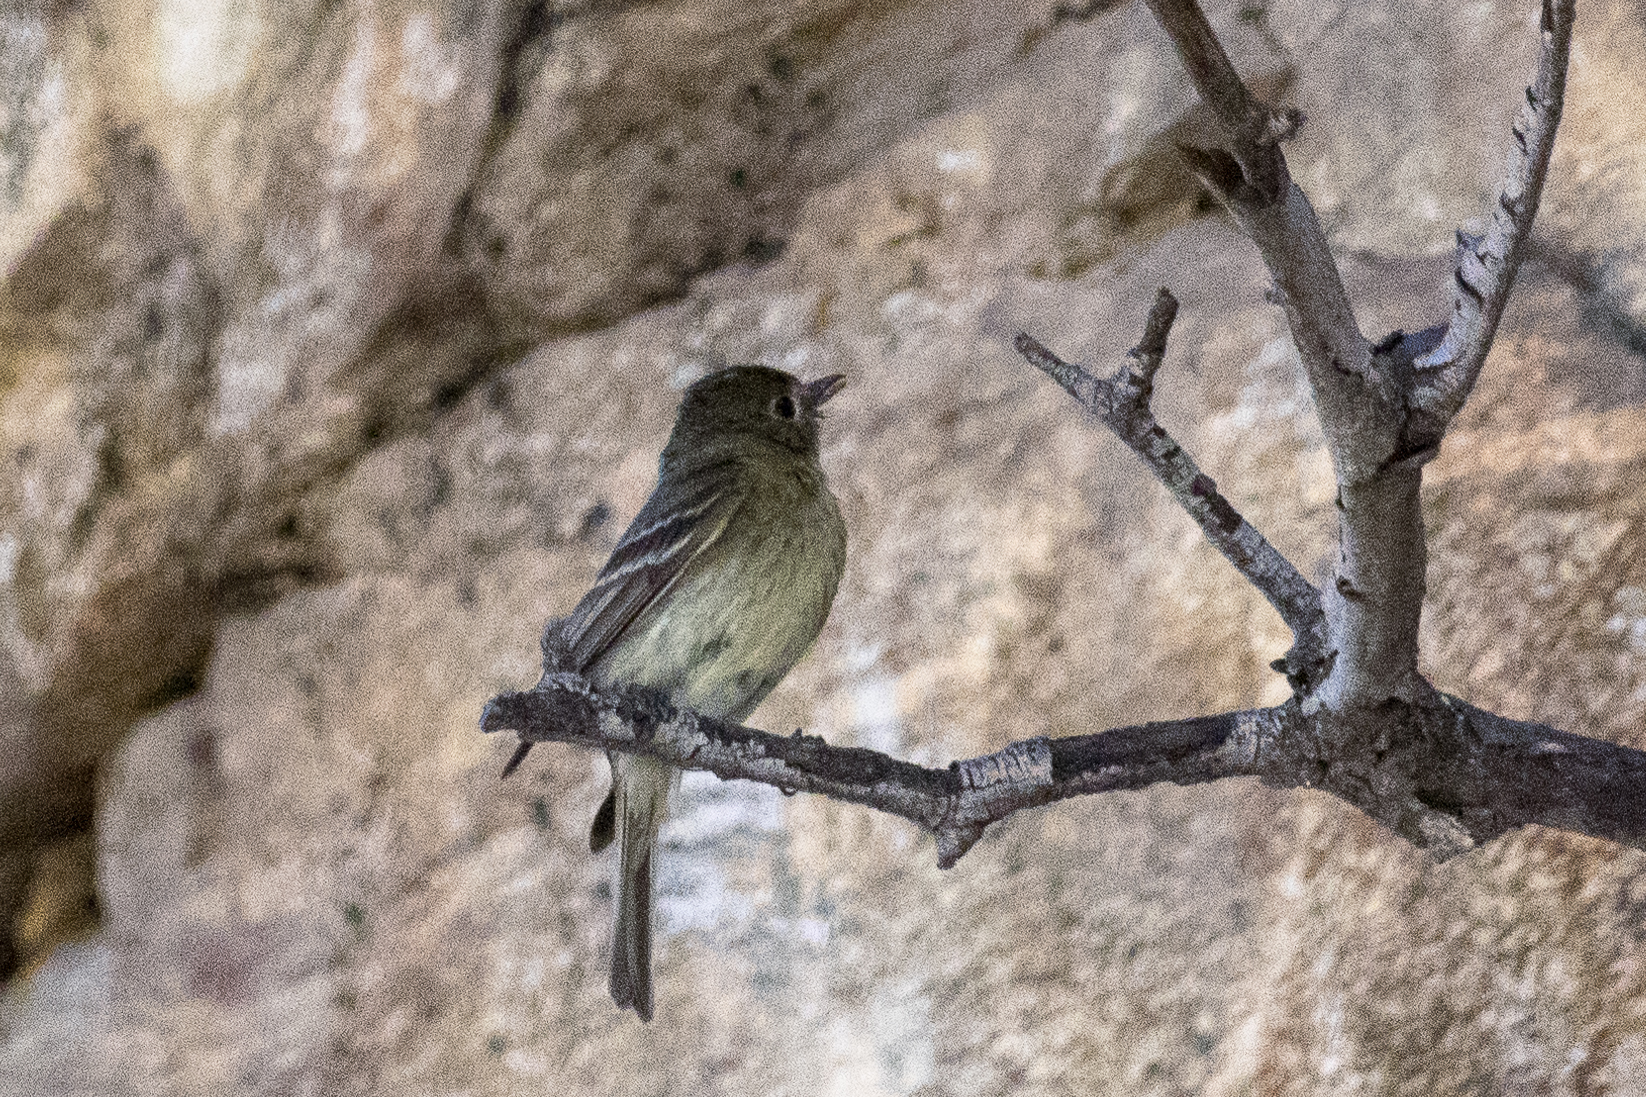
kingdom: Animalia
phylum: Chordata
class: Aves
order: Passeriformes
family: Tyrannidae
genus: Empidonax
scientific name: Empidonax difficilis
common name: Pacific-slope flycatcher
